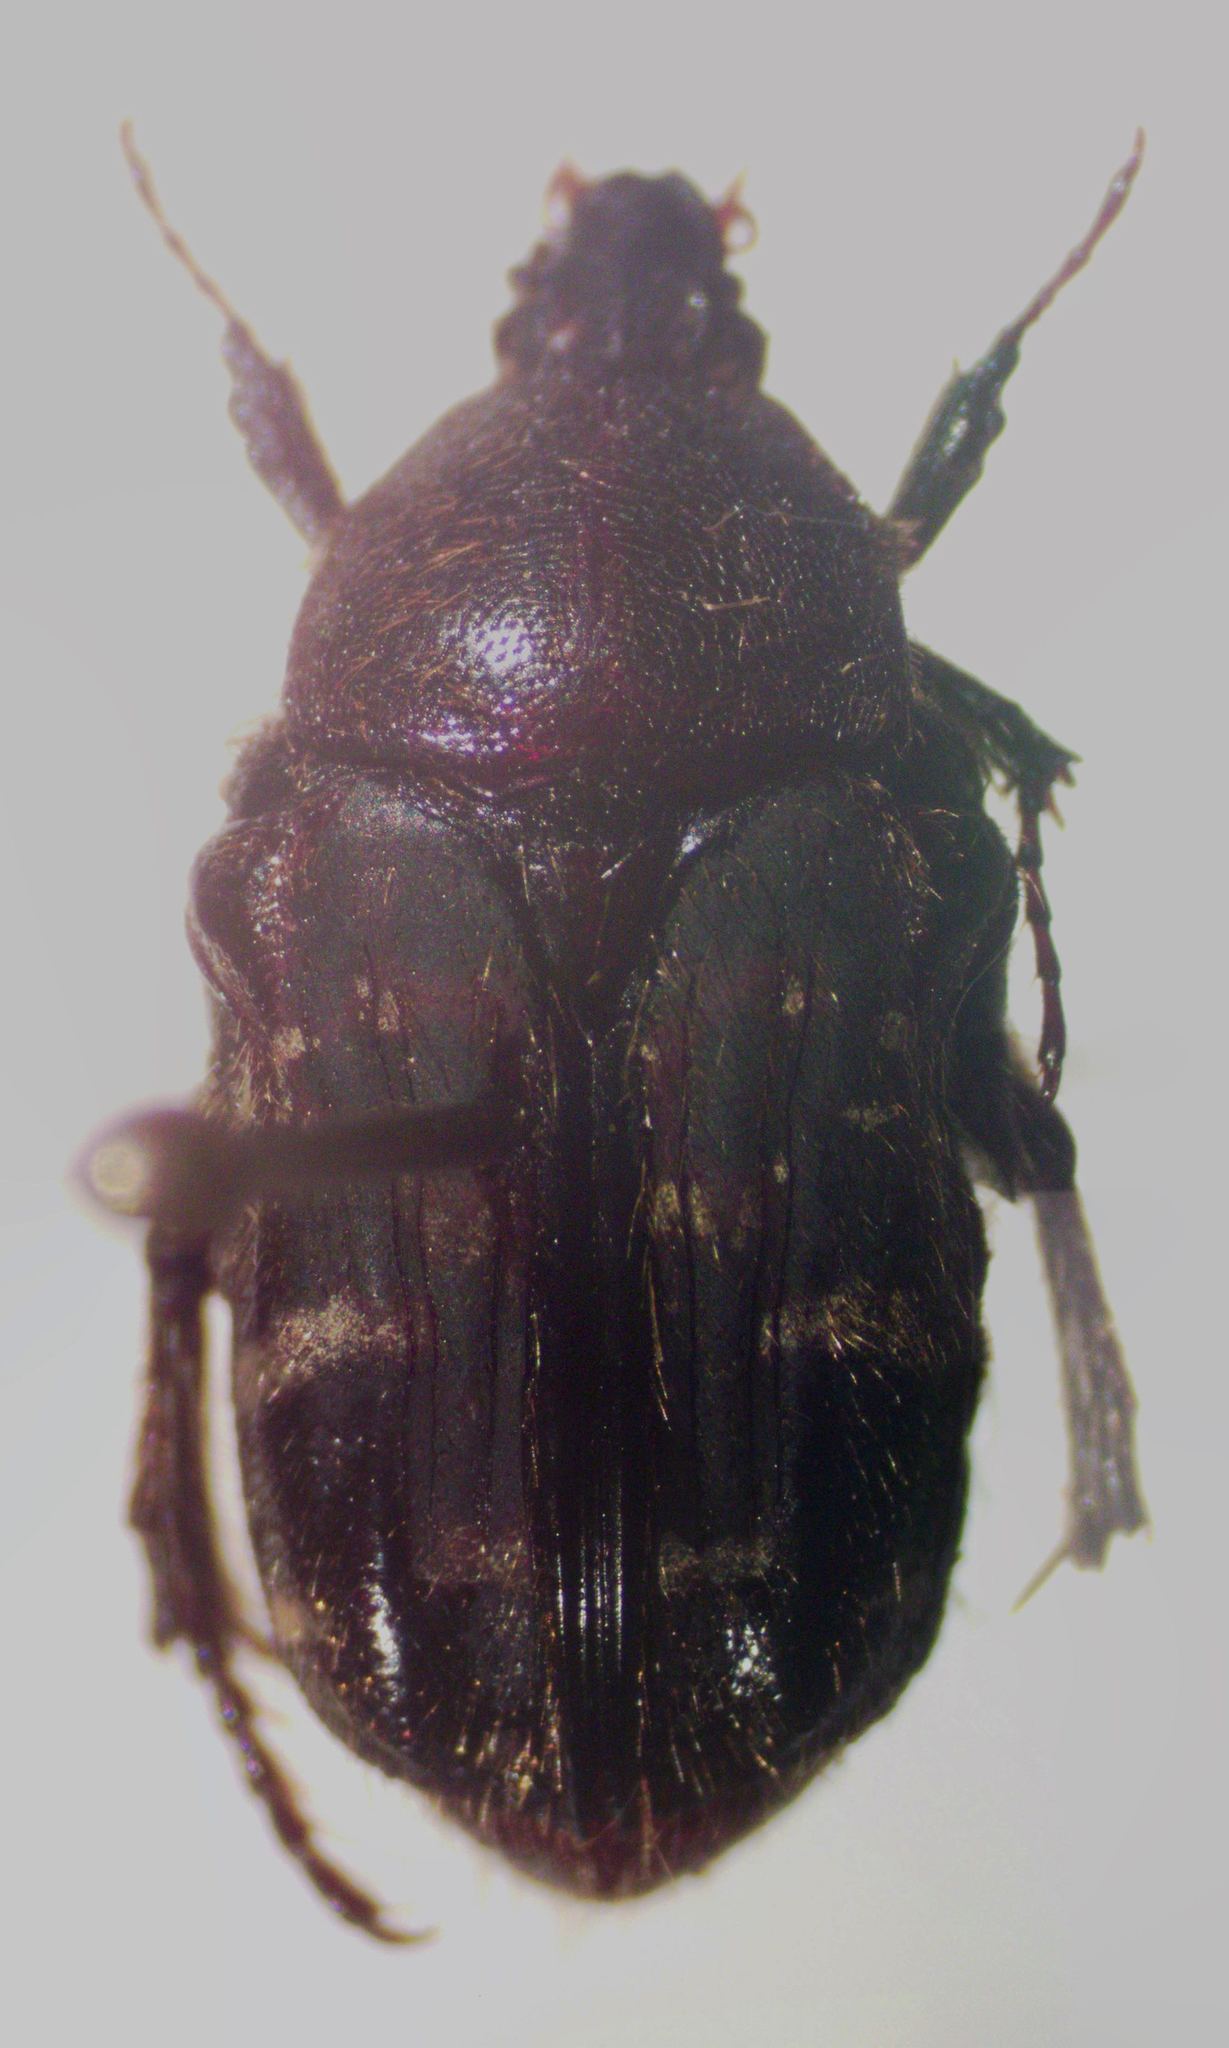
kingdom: Animalia
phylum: Arthropoda
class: Insecta
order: Coleoptera
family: Scarabaeidae
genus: Euphoria
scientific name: Euphoria pulchella
